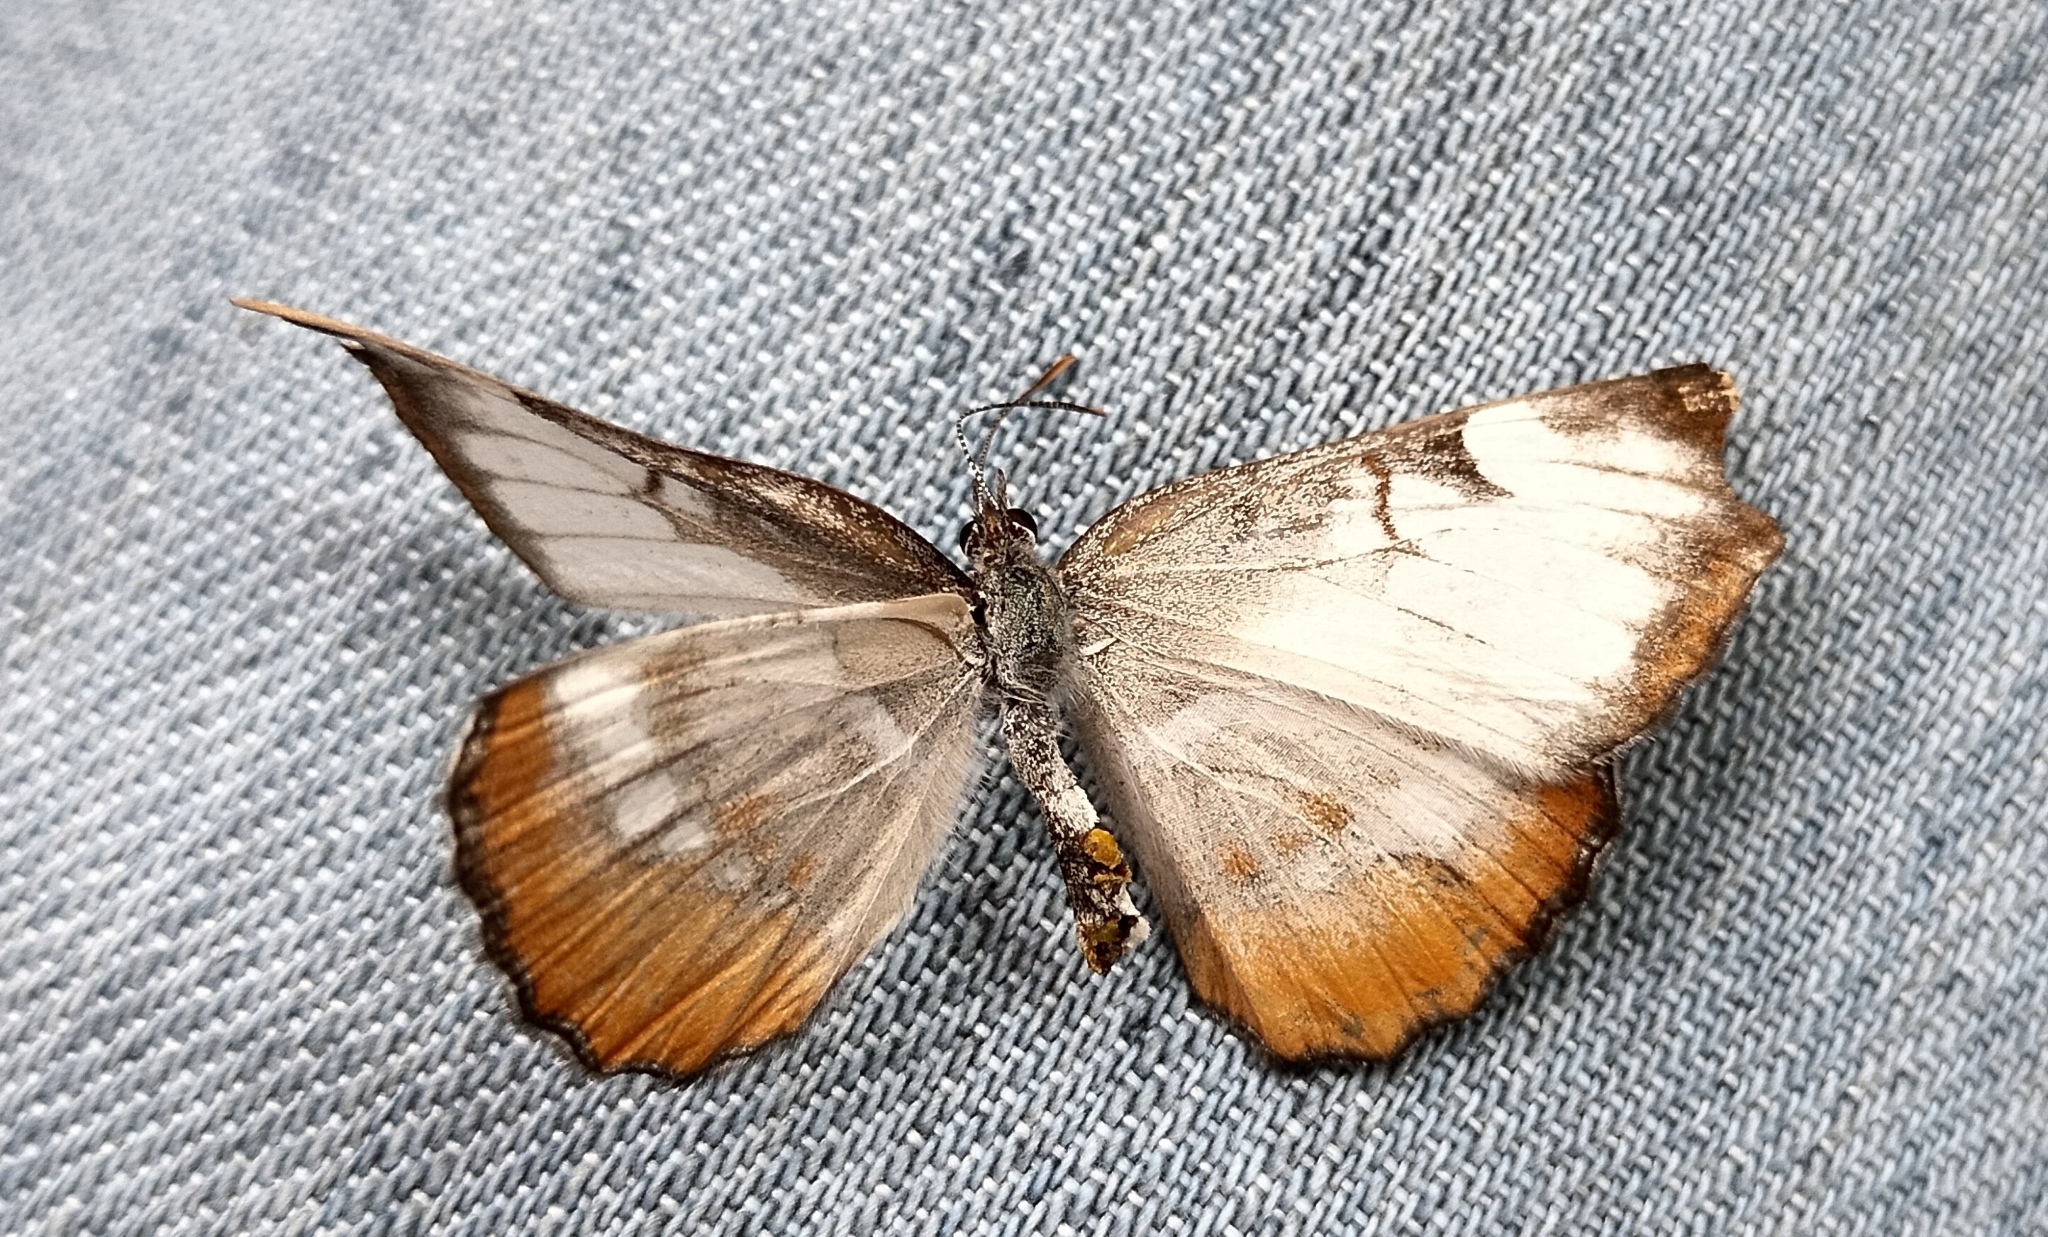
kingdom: Animalia
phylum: Arthropoda
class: Insecta
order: Lepidoptera
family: Nymphalidae
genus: Mestra
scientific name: Mestra amymone
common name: Common mestra
